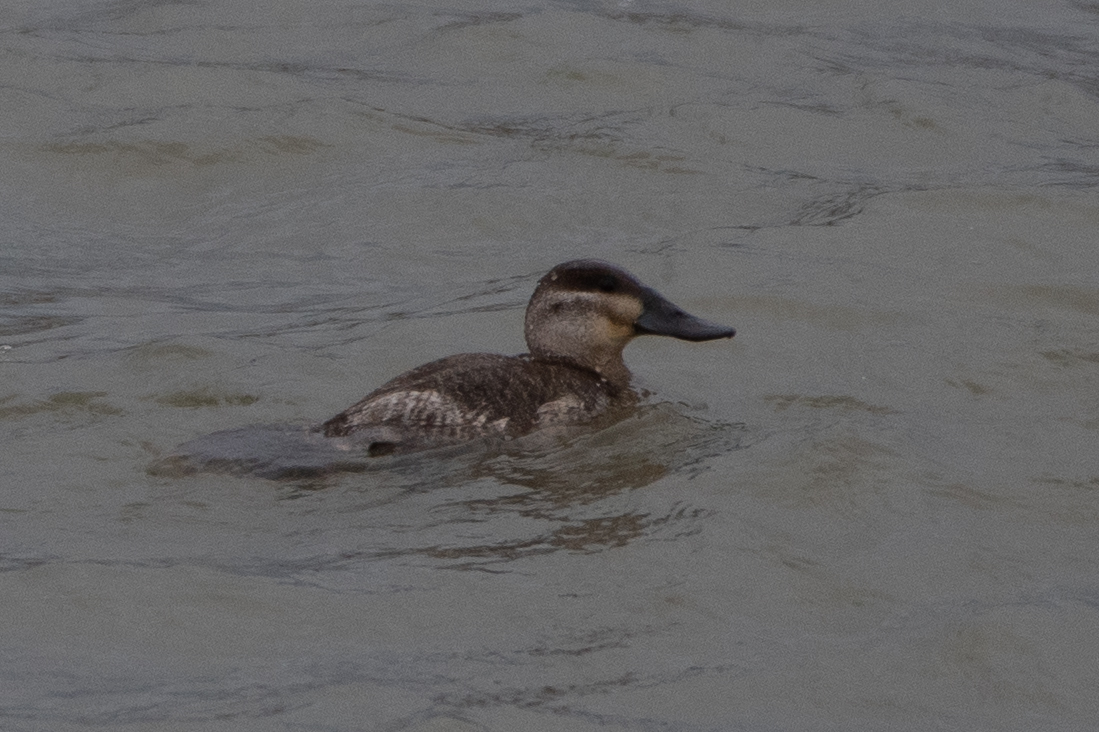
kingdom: Animalia
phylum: Chordata
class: Aves
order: Anseriformes
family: Anatidae
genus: Oxyura
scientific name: Oxyura jamaicensis
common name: Ruddy duck
